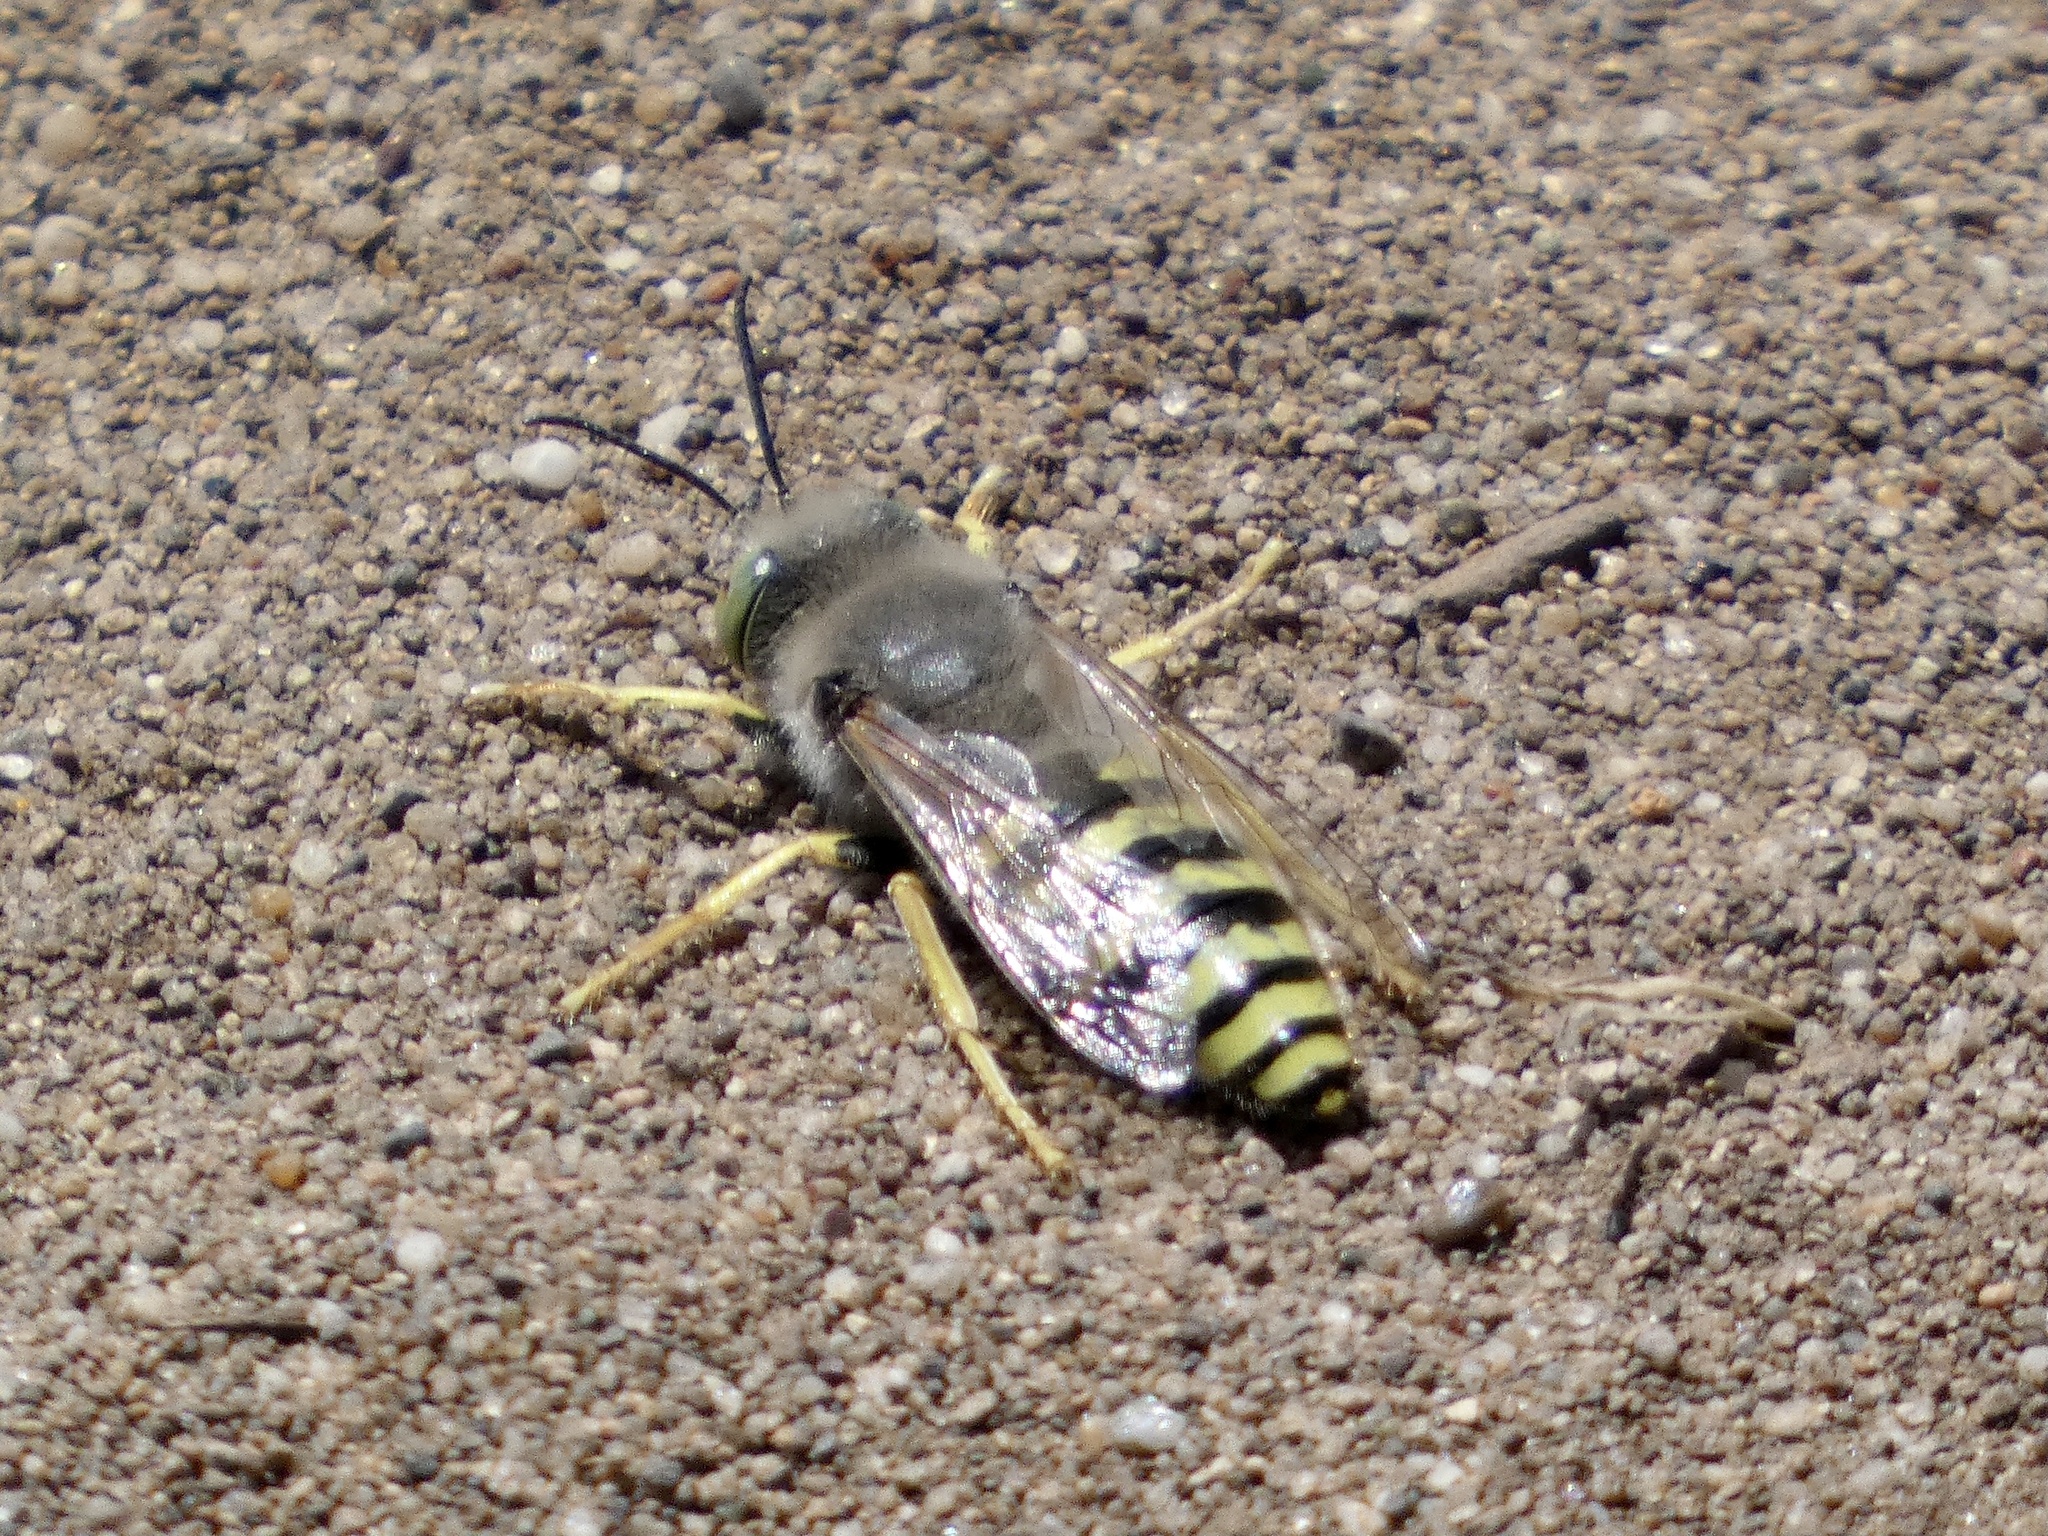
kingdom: Animalia
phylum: Arthropoda
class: Insecta
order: Hymenoptera
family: Crabronidae
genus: Bembix
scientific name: Bembix americana
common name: American sand wasp
